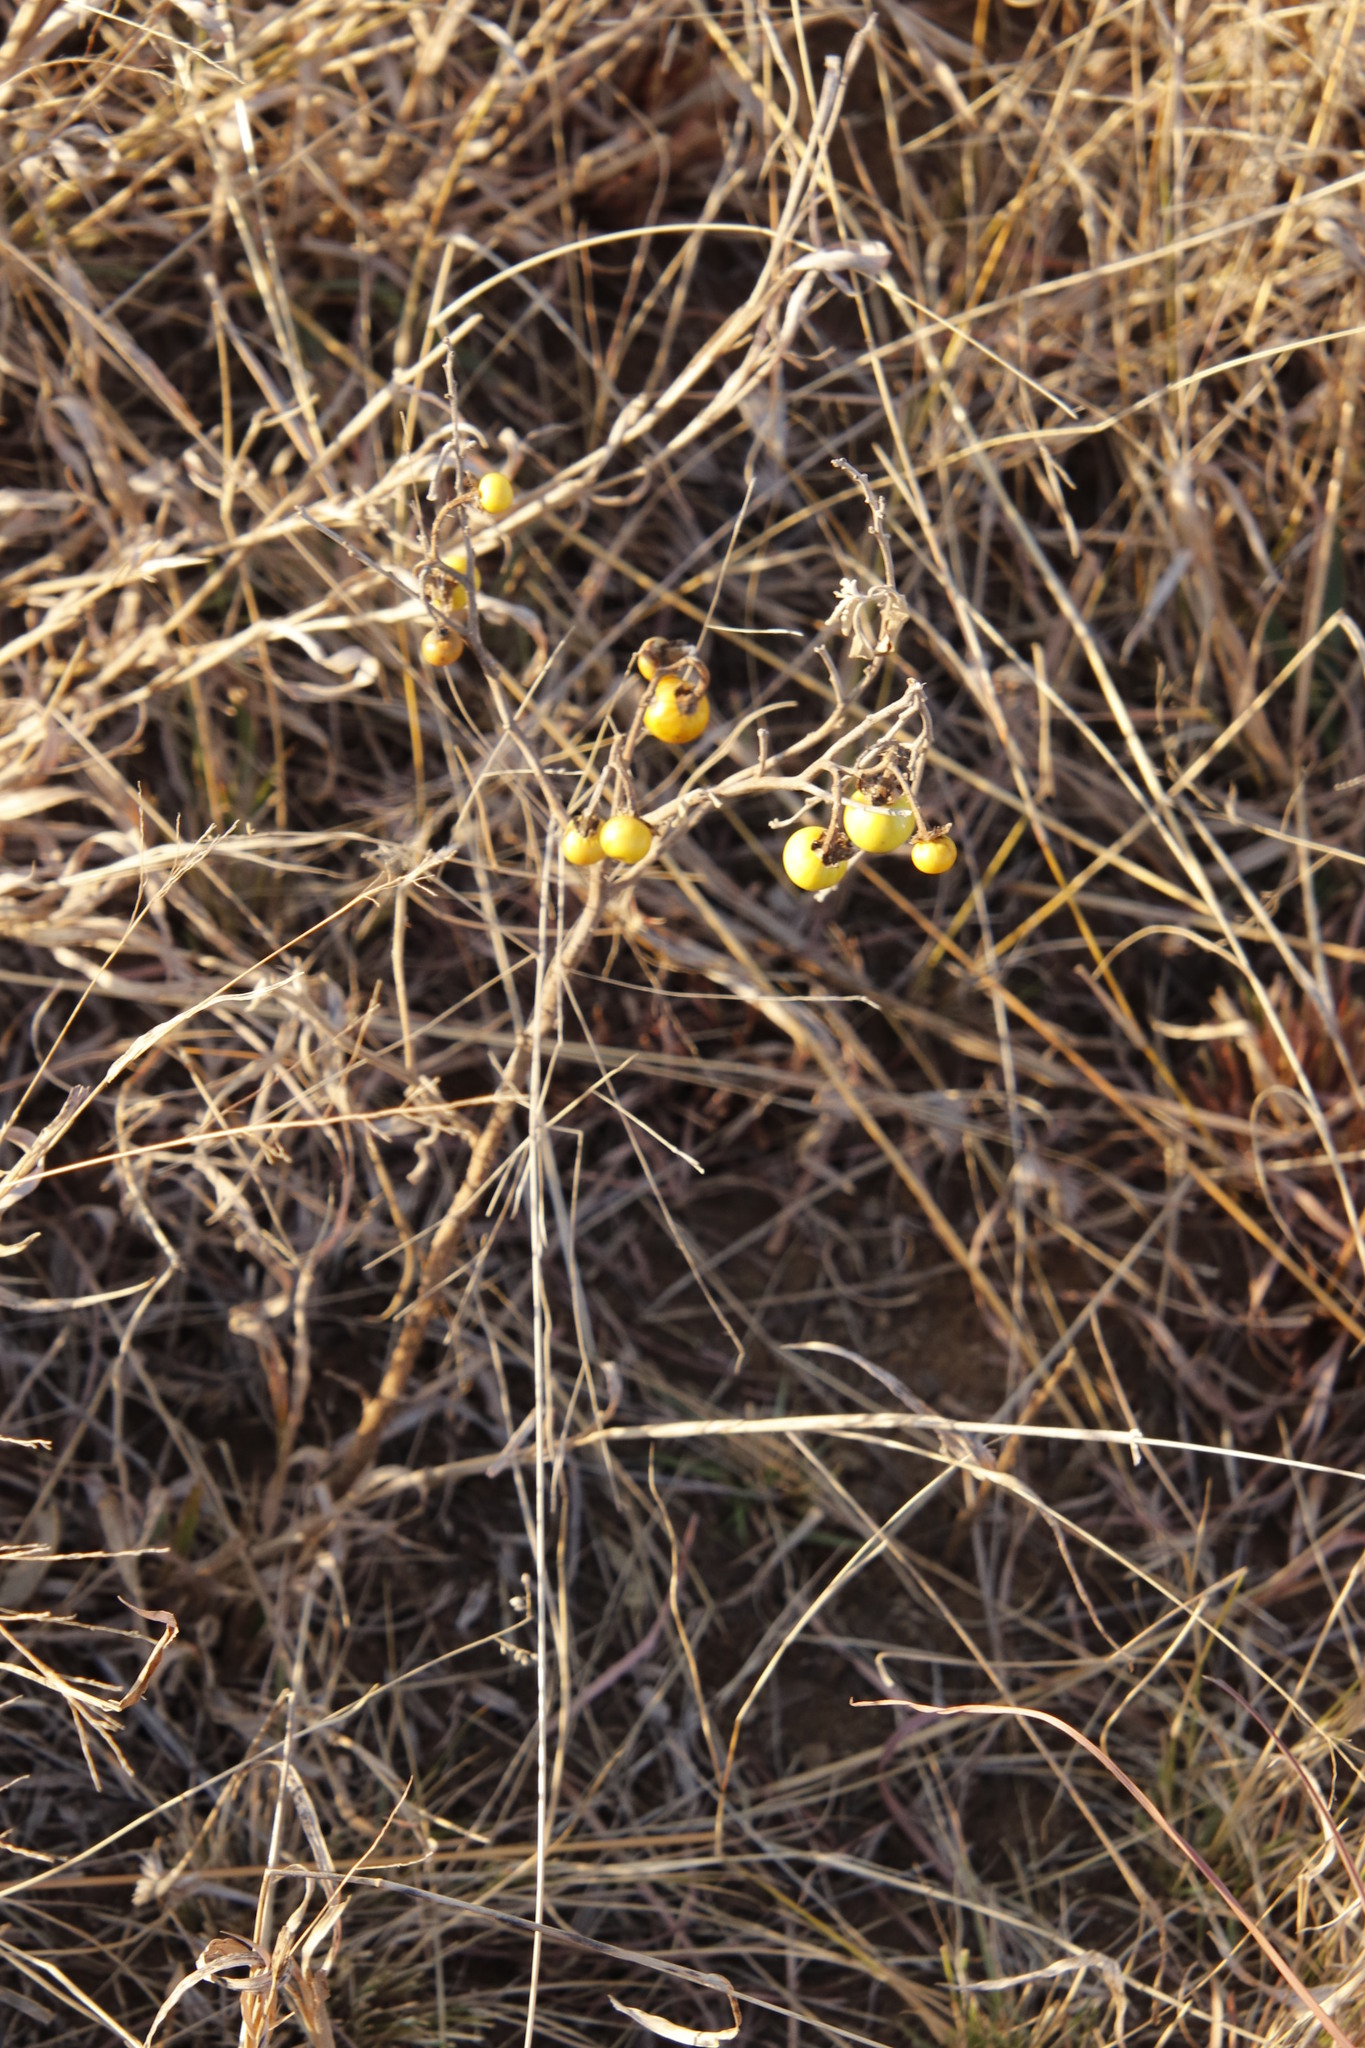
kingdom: Plantae
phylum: Tracheophyta
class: Magnoliopsida
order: Solanales
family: Solanaceae
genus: Solanum
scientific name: Solanum elaeagnifolium
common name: Silverleaf nightshade
